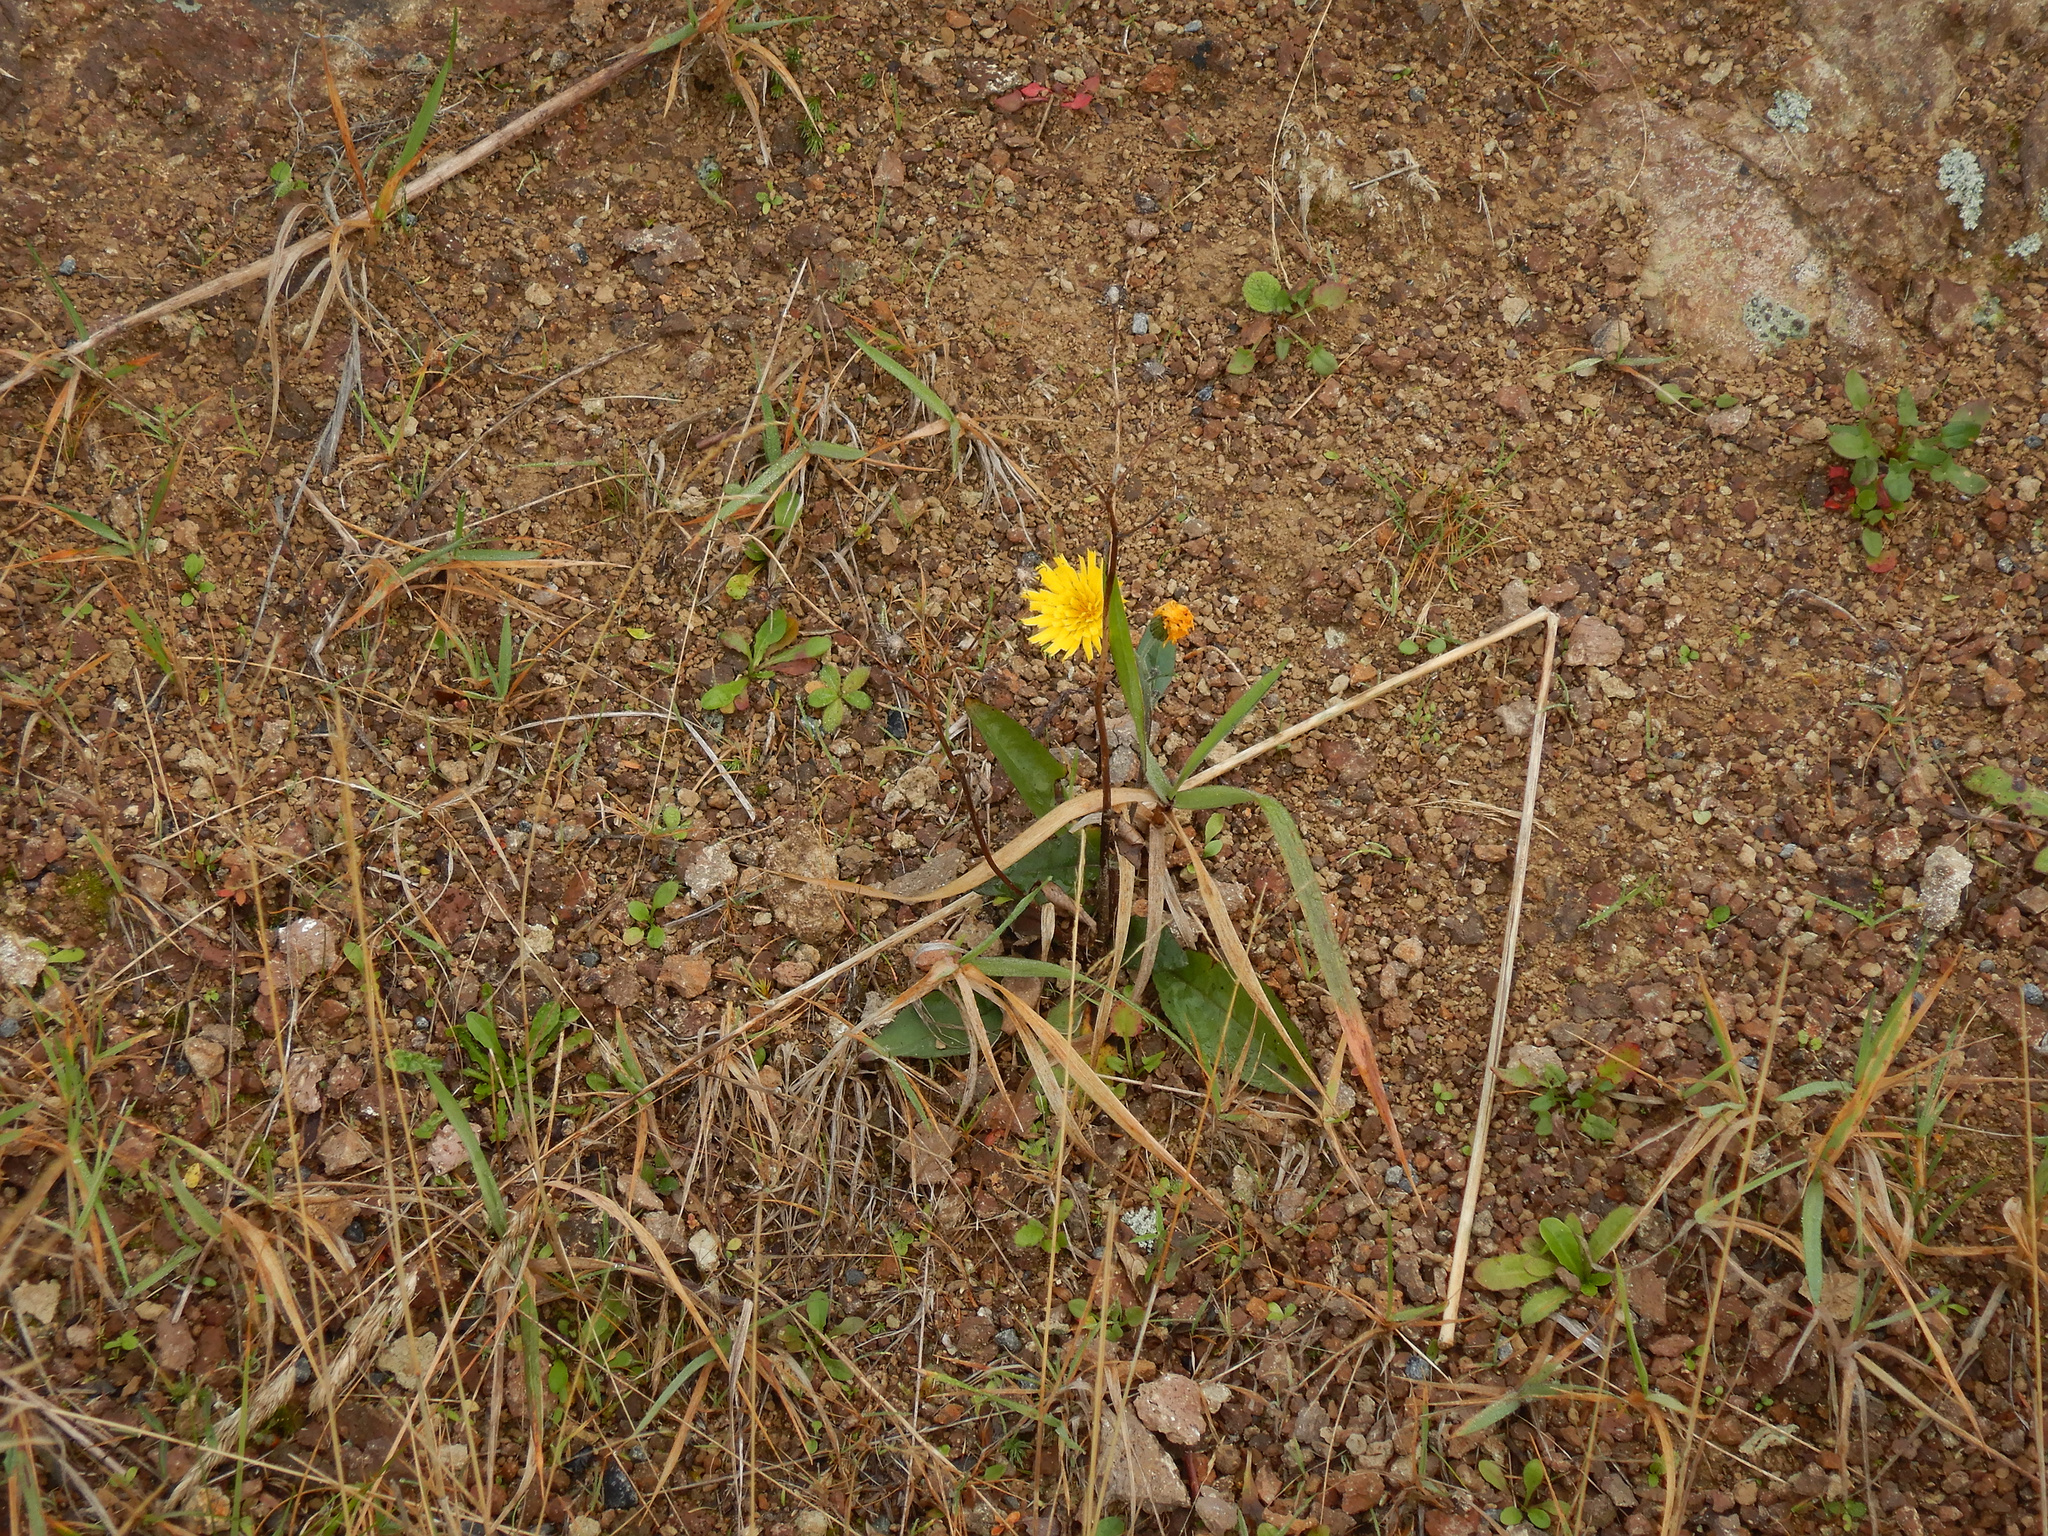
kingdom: Plantae
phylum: Tracheophyta
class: Magnoliopsida
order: Asterales
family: Asteraceae
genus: Hieracium
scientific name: Hieracium lepidulum
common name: Irregular-toothed hawkweed
